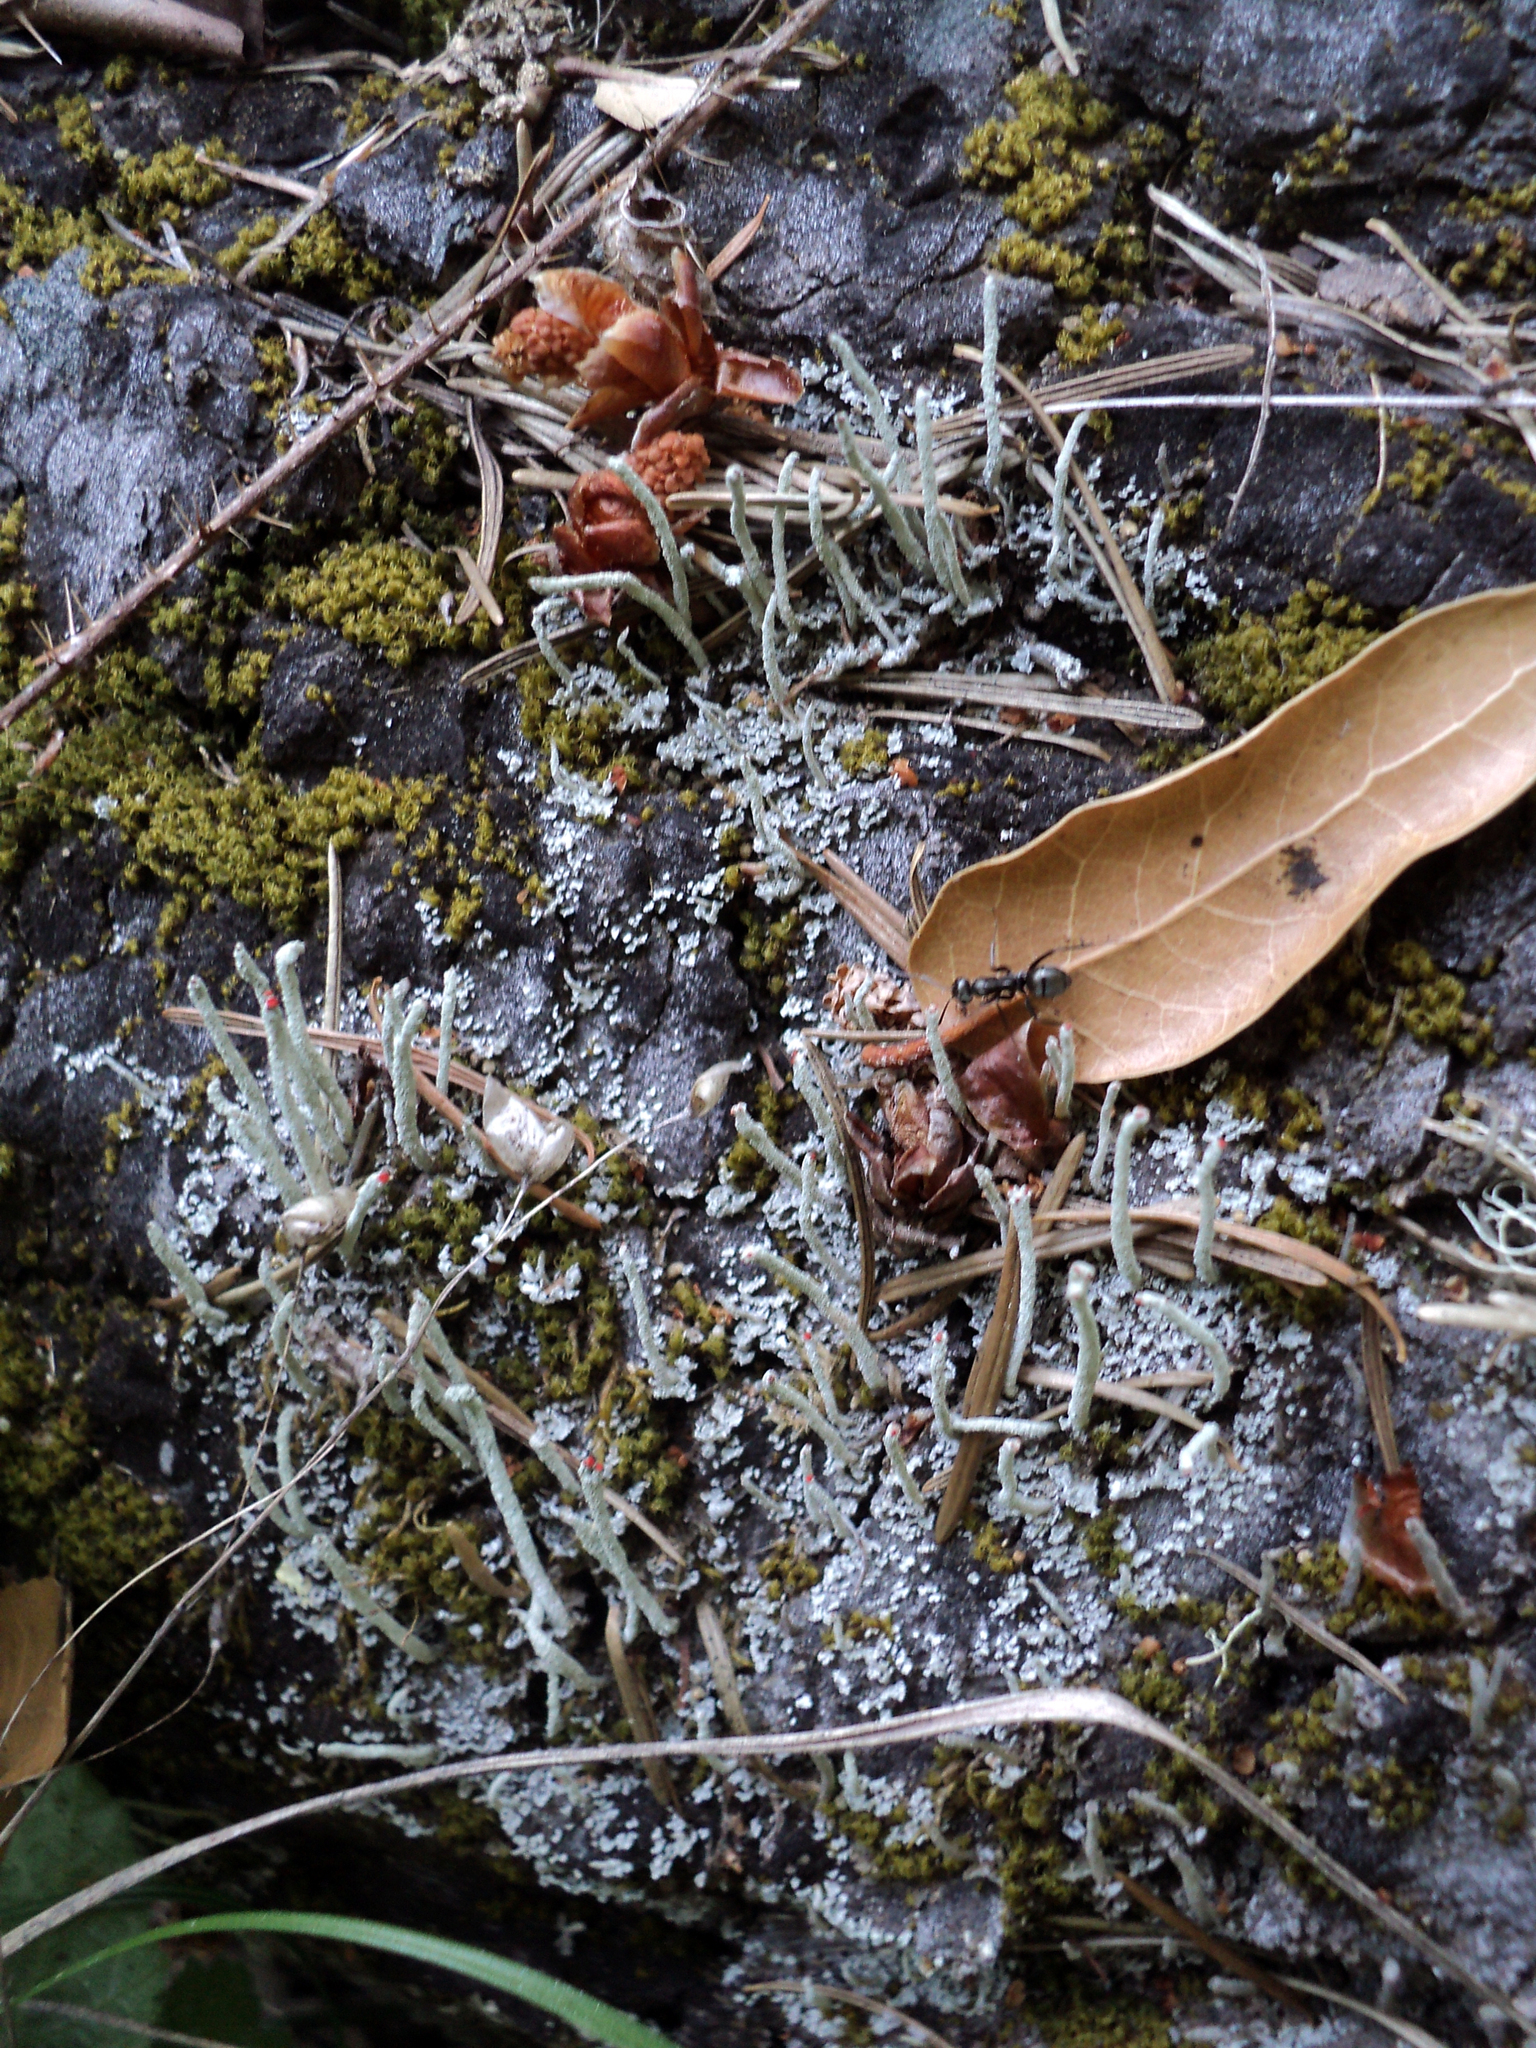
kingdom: Fungi
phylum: Ascomycota
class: Lecanoromycetes
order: Lecanorales
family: Cladoniaceae
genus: Cladonia
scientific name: Cladonia macilenta
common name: Lipstick powderhorn
